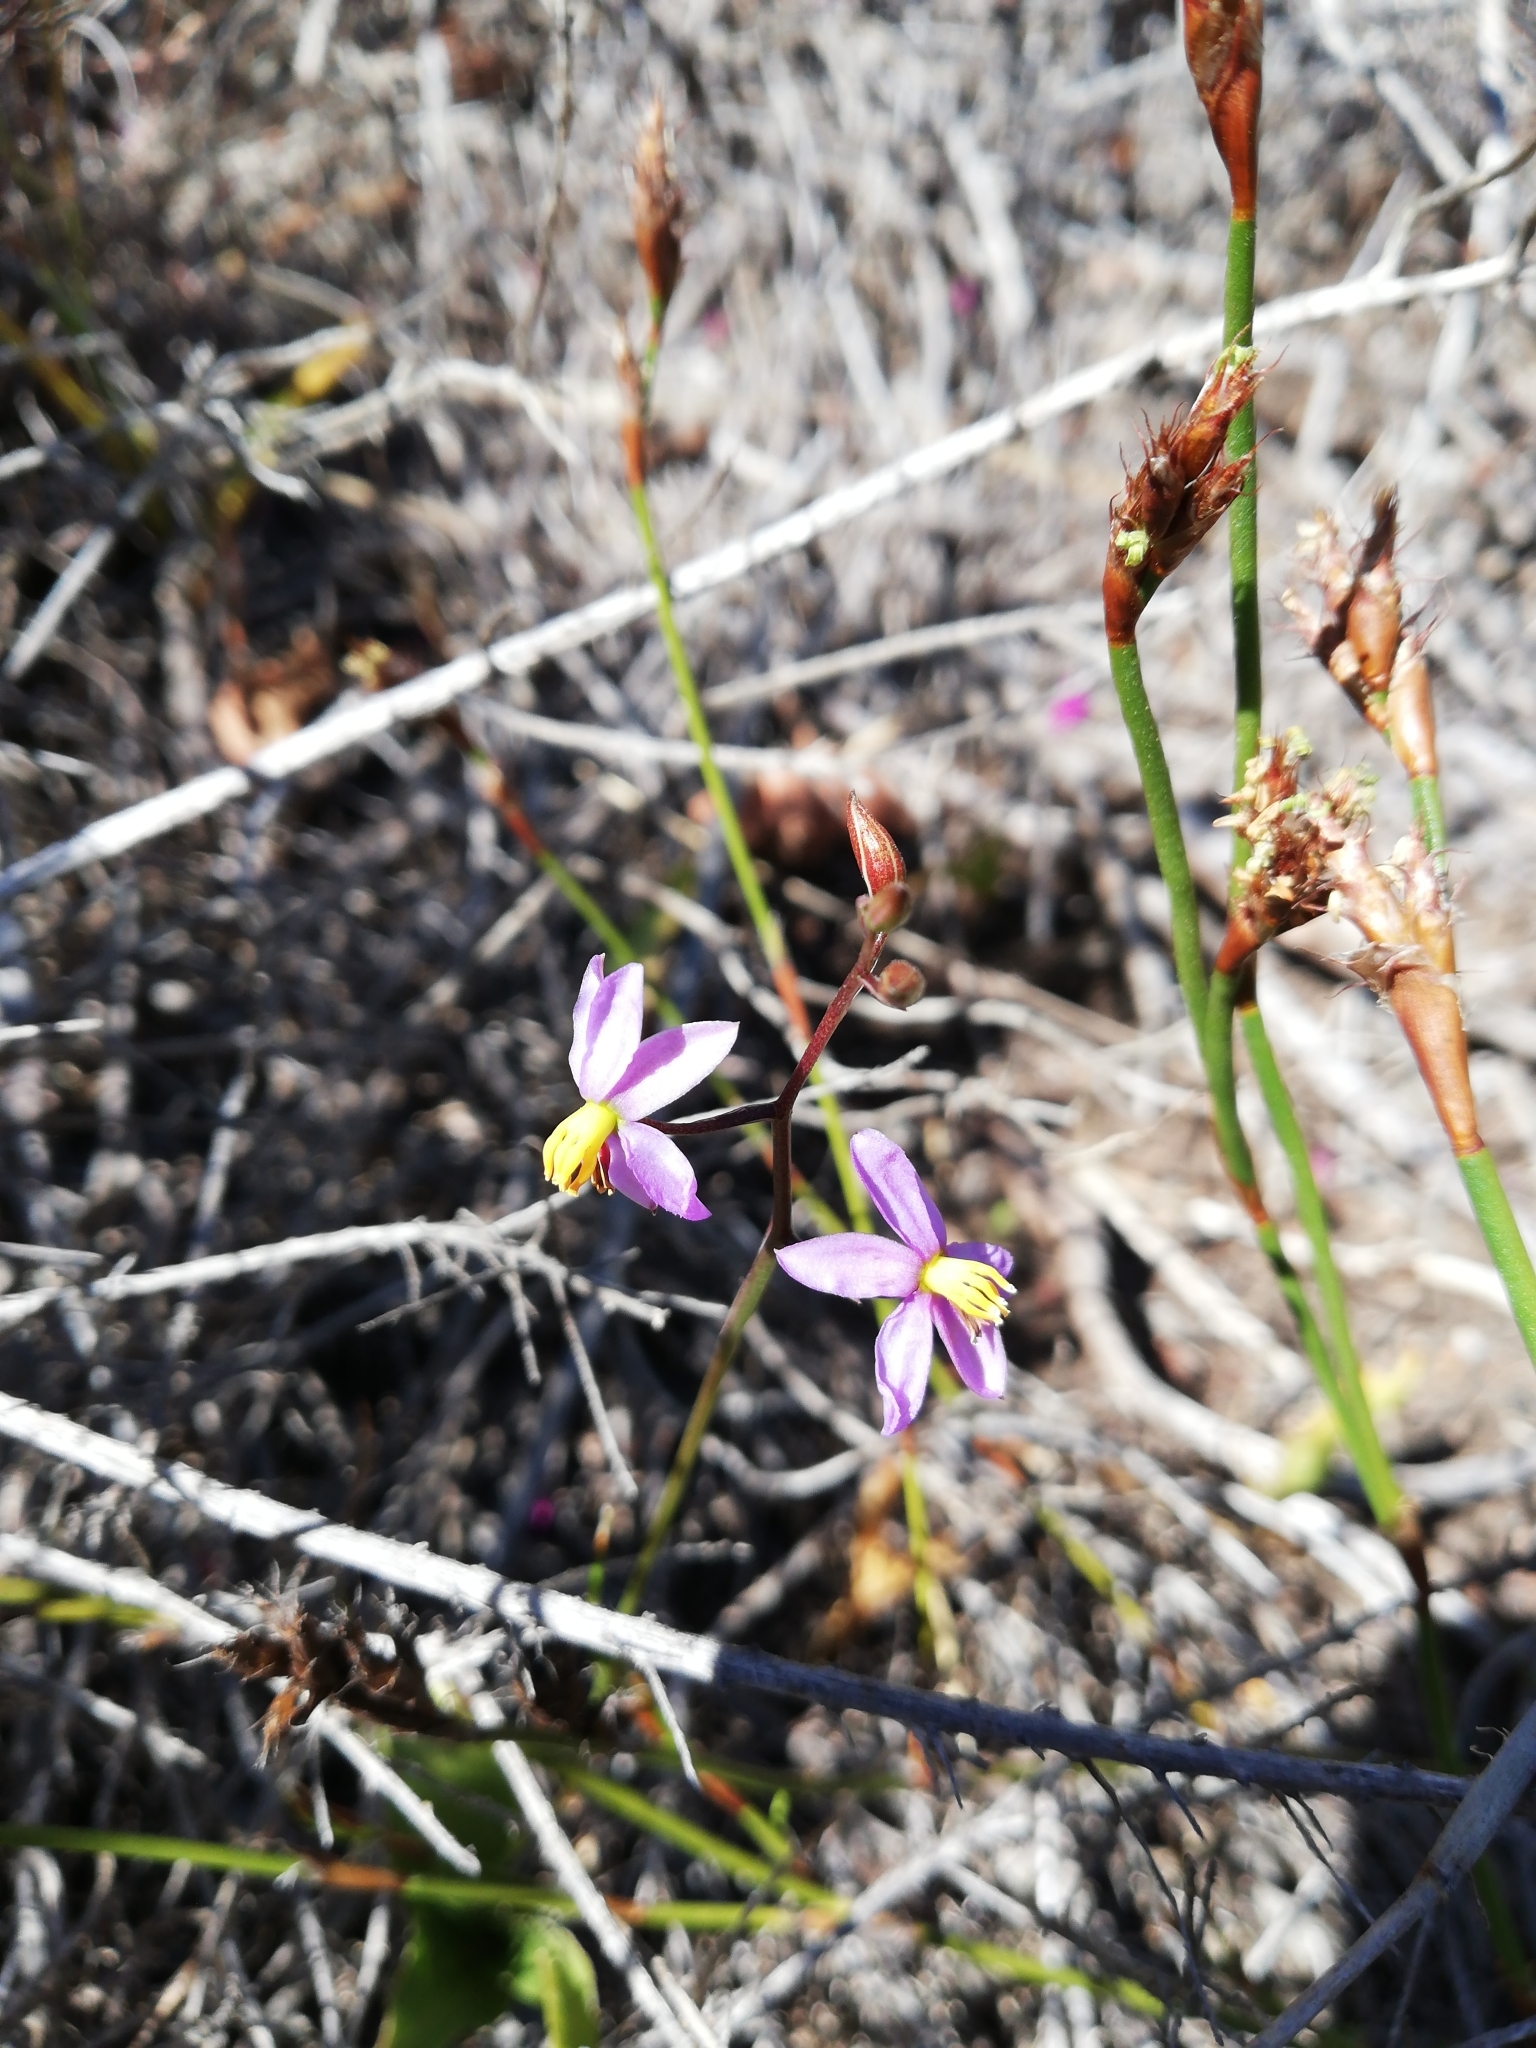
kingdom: Plantae
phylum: Tracheophyta
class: Liliopsida
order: Asparagales
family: Tecophilaeaceae
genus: Cyanella
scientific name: Cyanella hyacinthoides
